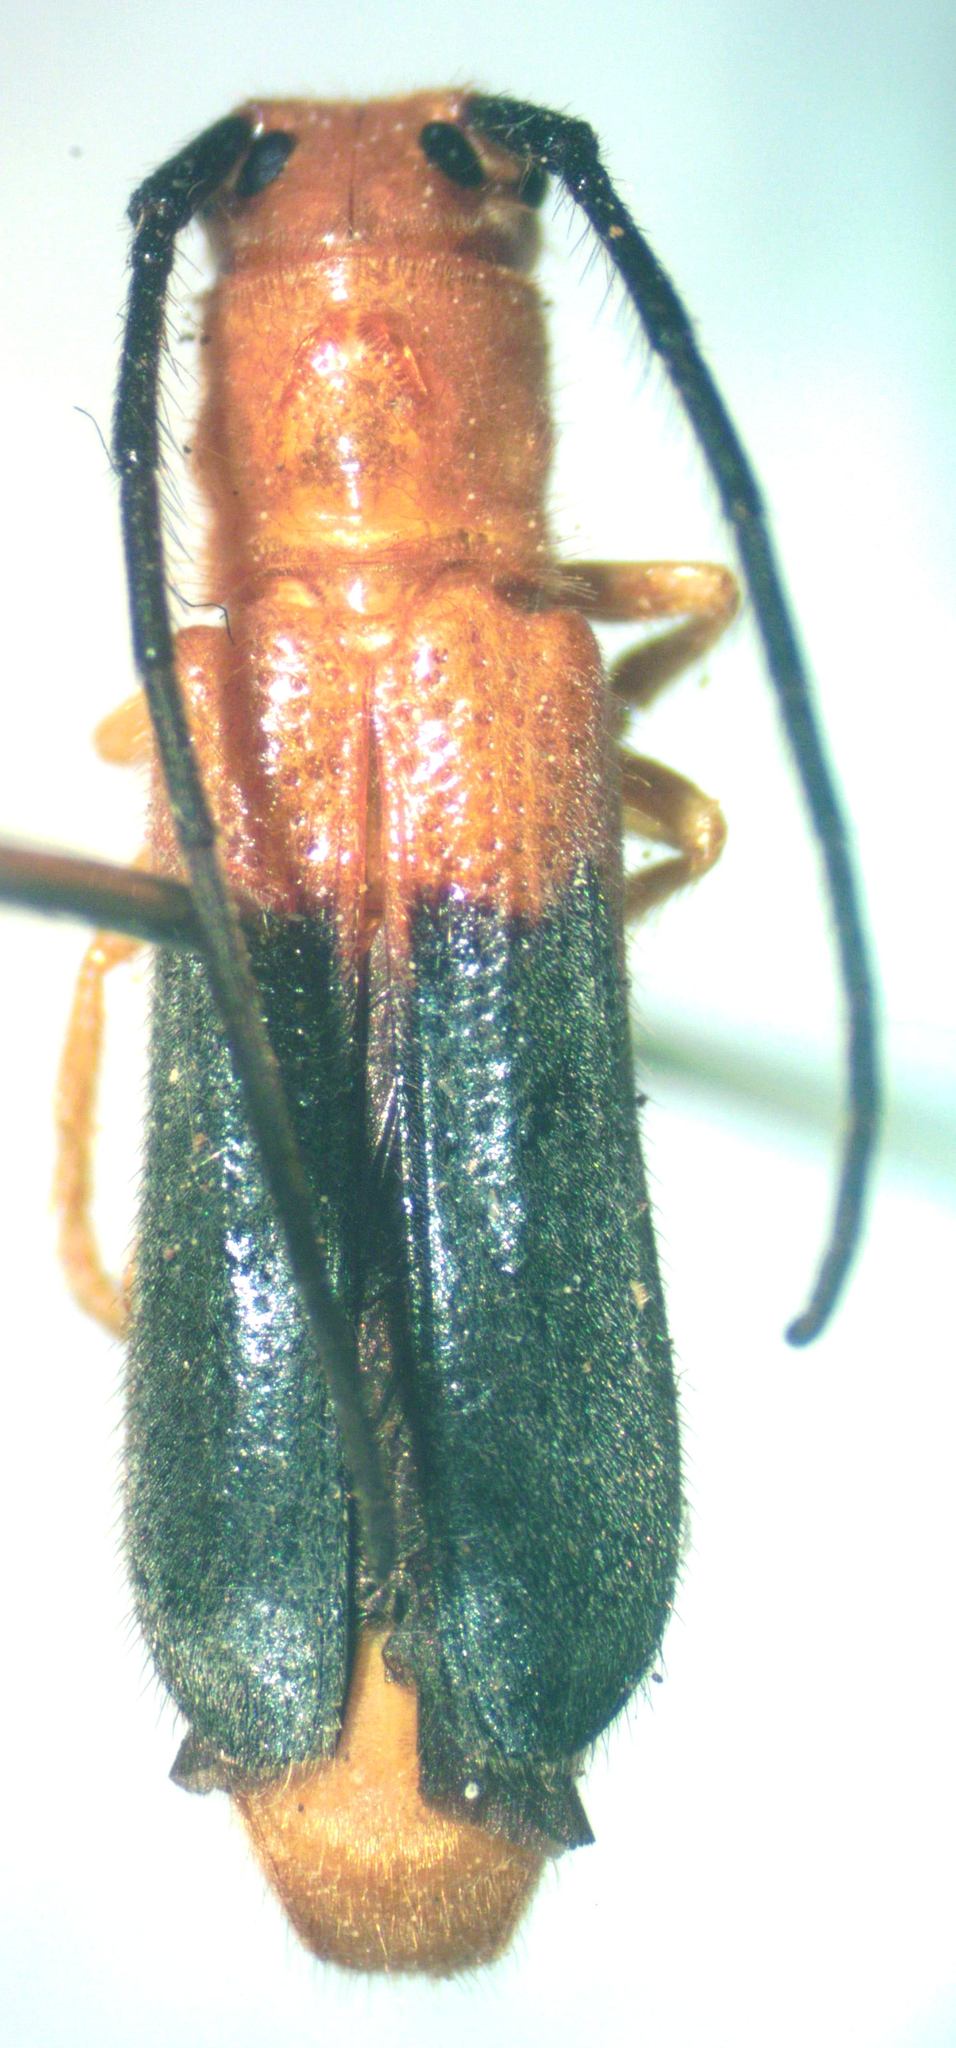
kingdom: Animalia
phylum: Arthropoda
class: Insecta
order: Coleoptera
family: Cerambycidae
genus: Phaea
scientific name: Phaea giesberti
